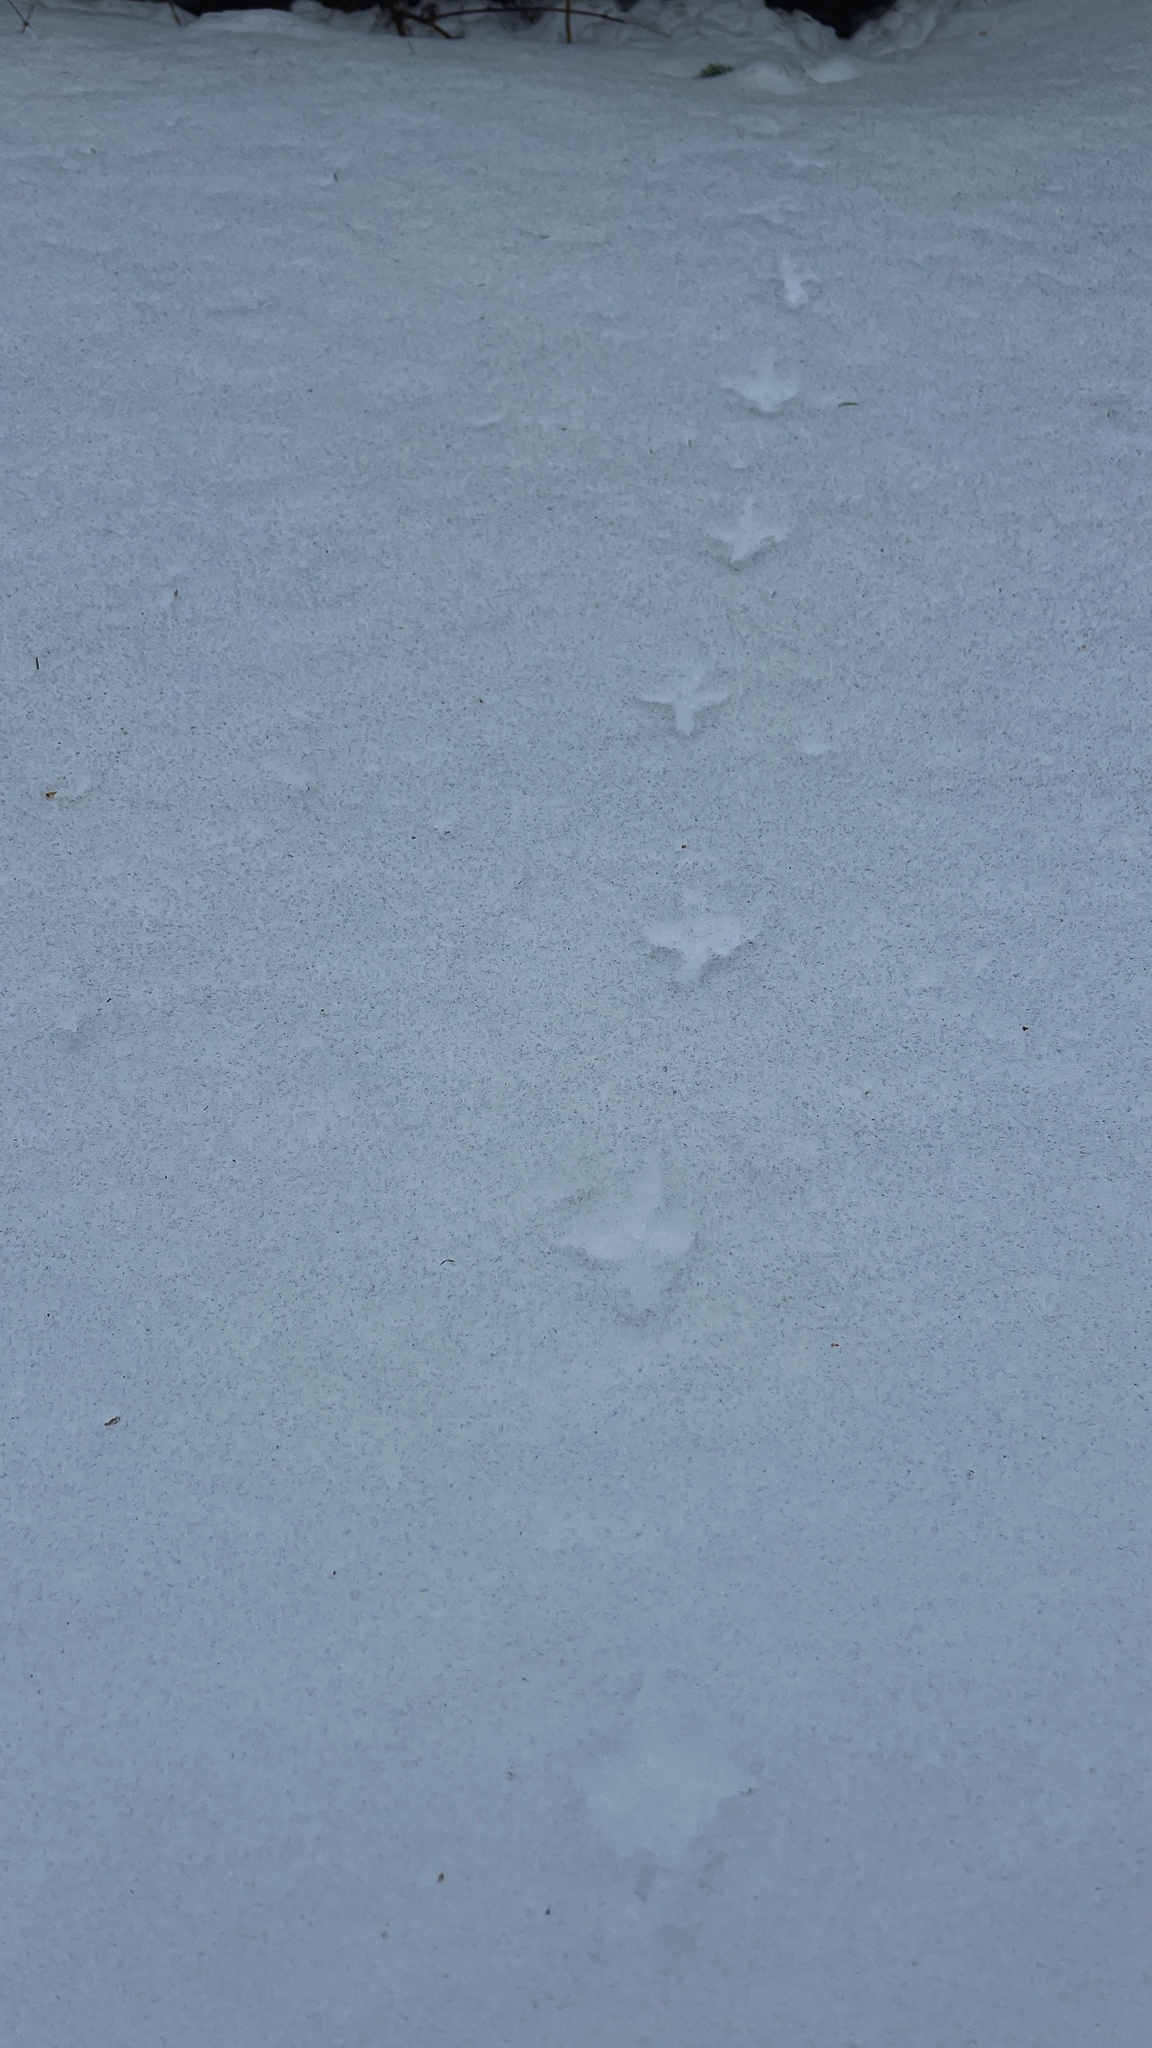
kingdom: Animalia
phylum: Chordata
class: Aves
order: Galliformes
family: Phasianidae
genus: Bonasa
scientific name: Bonasa umbellus
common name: Ruffed grouse
